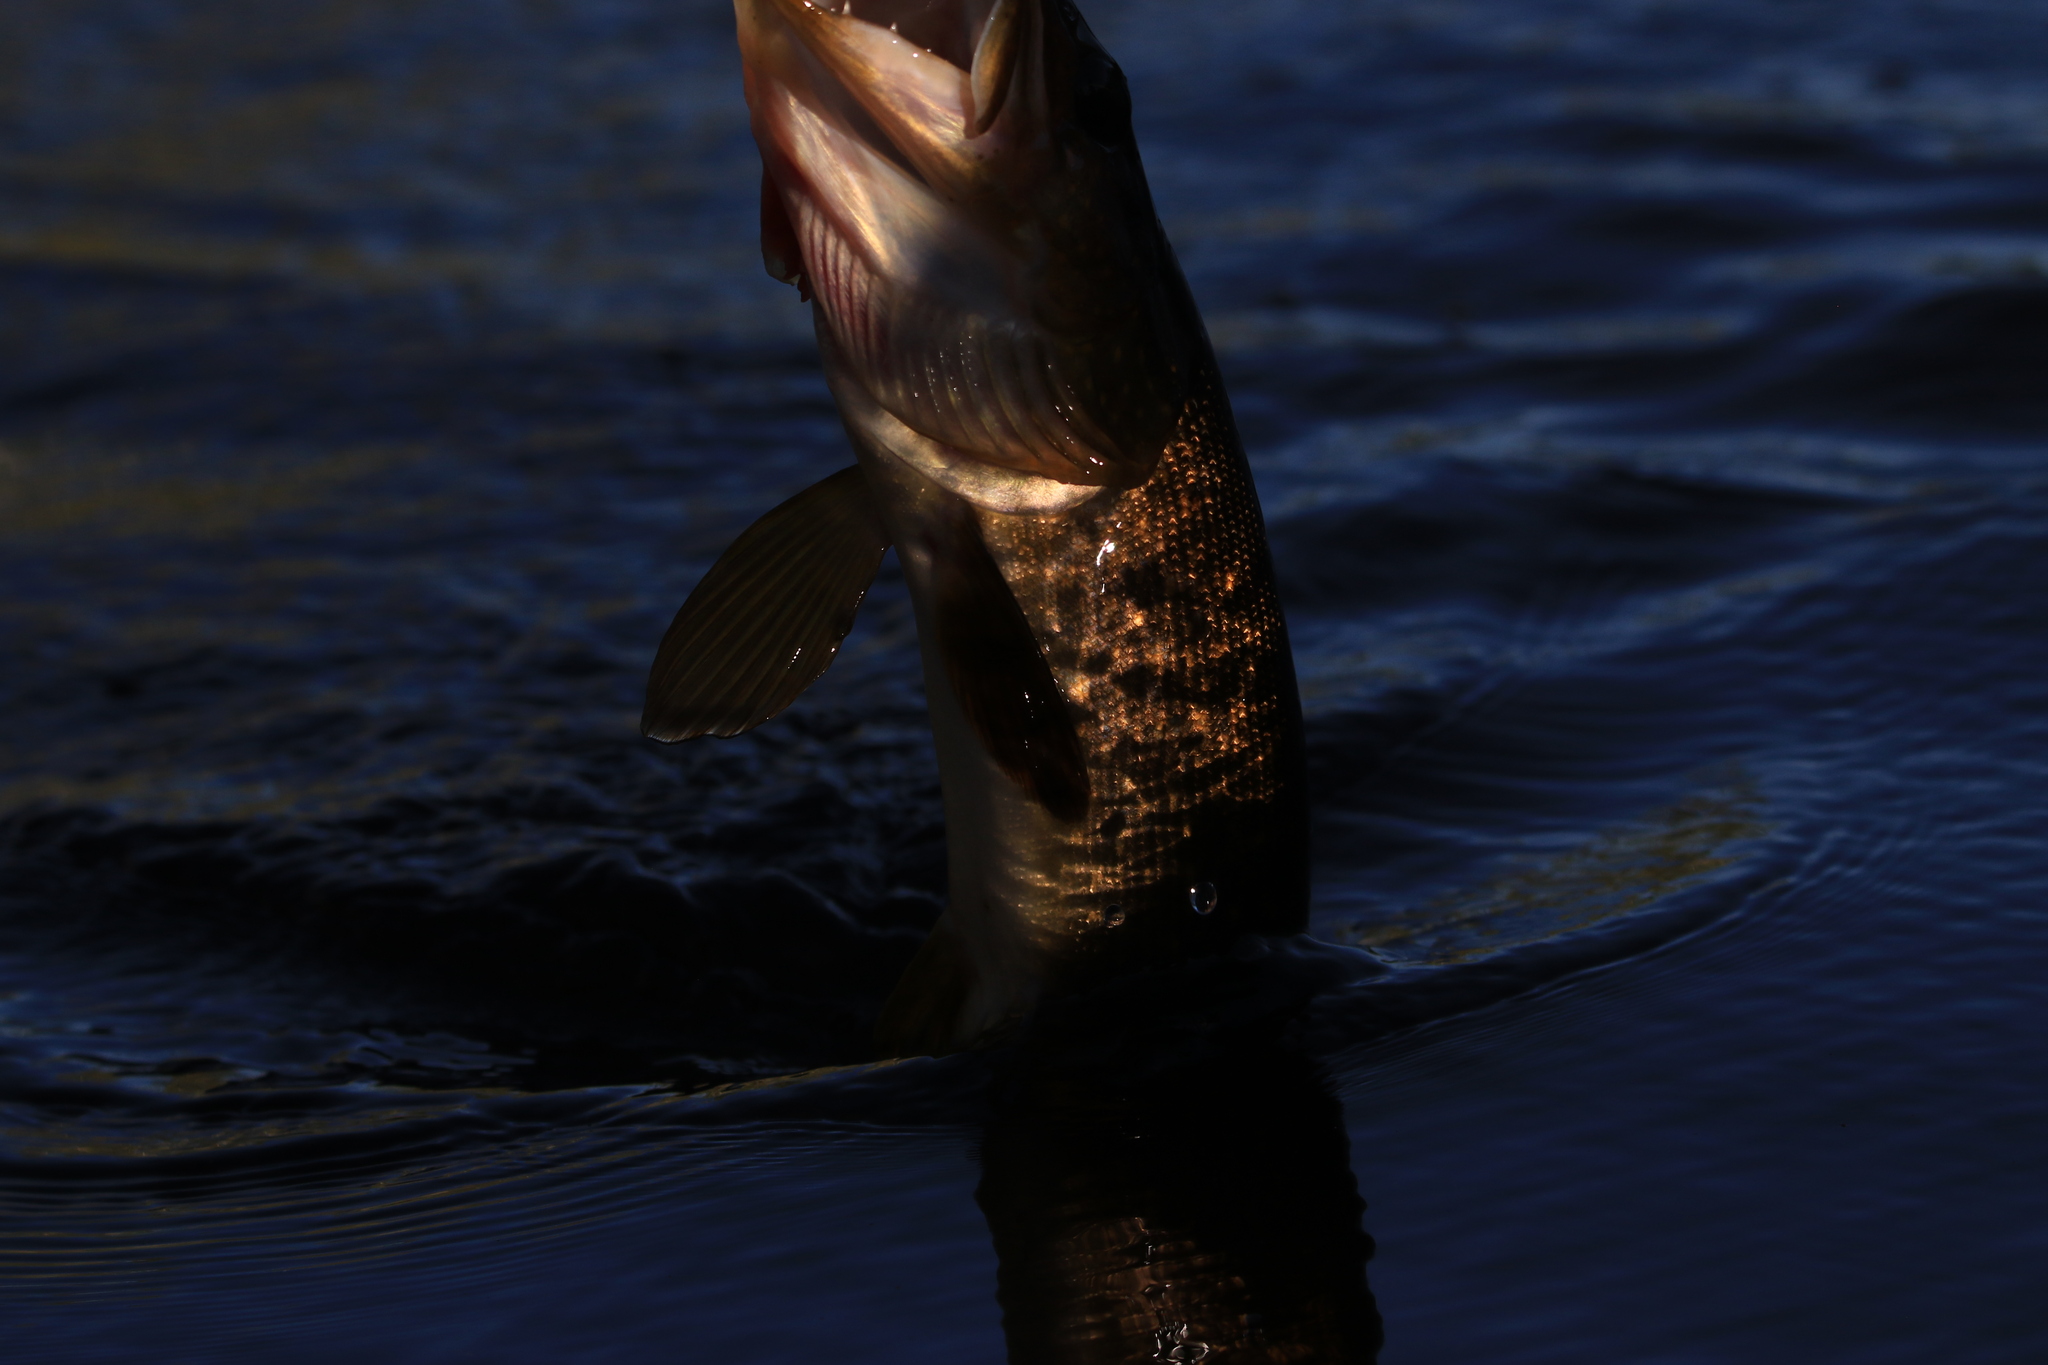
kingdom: Animalia
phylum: Chordata
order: Esociformes
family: Esocidae
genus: Esox
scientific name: Esox lucius
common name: Northern pike
